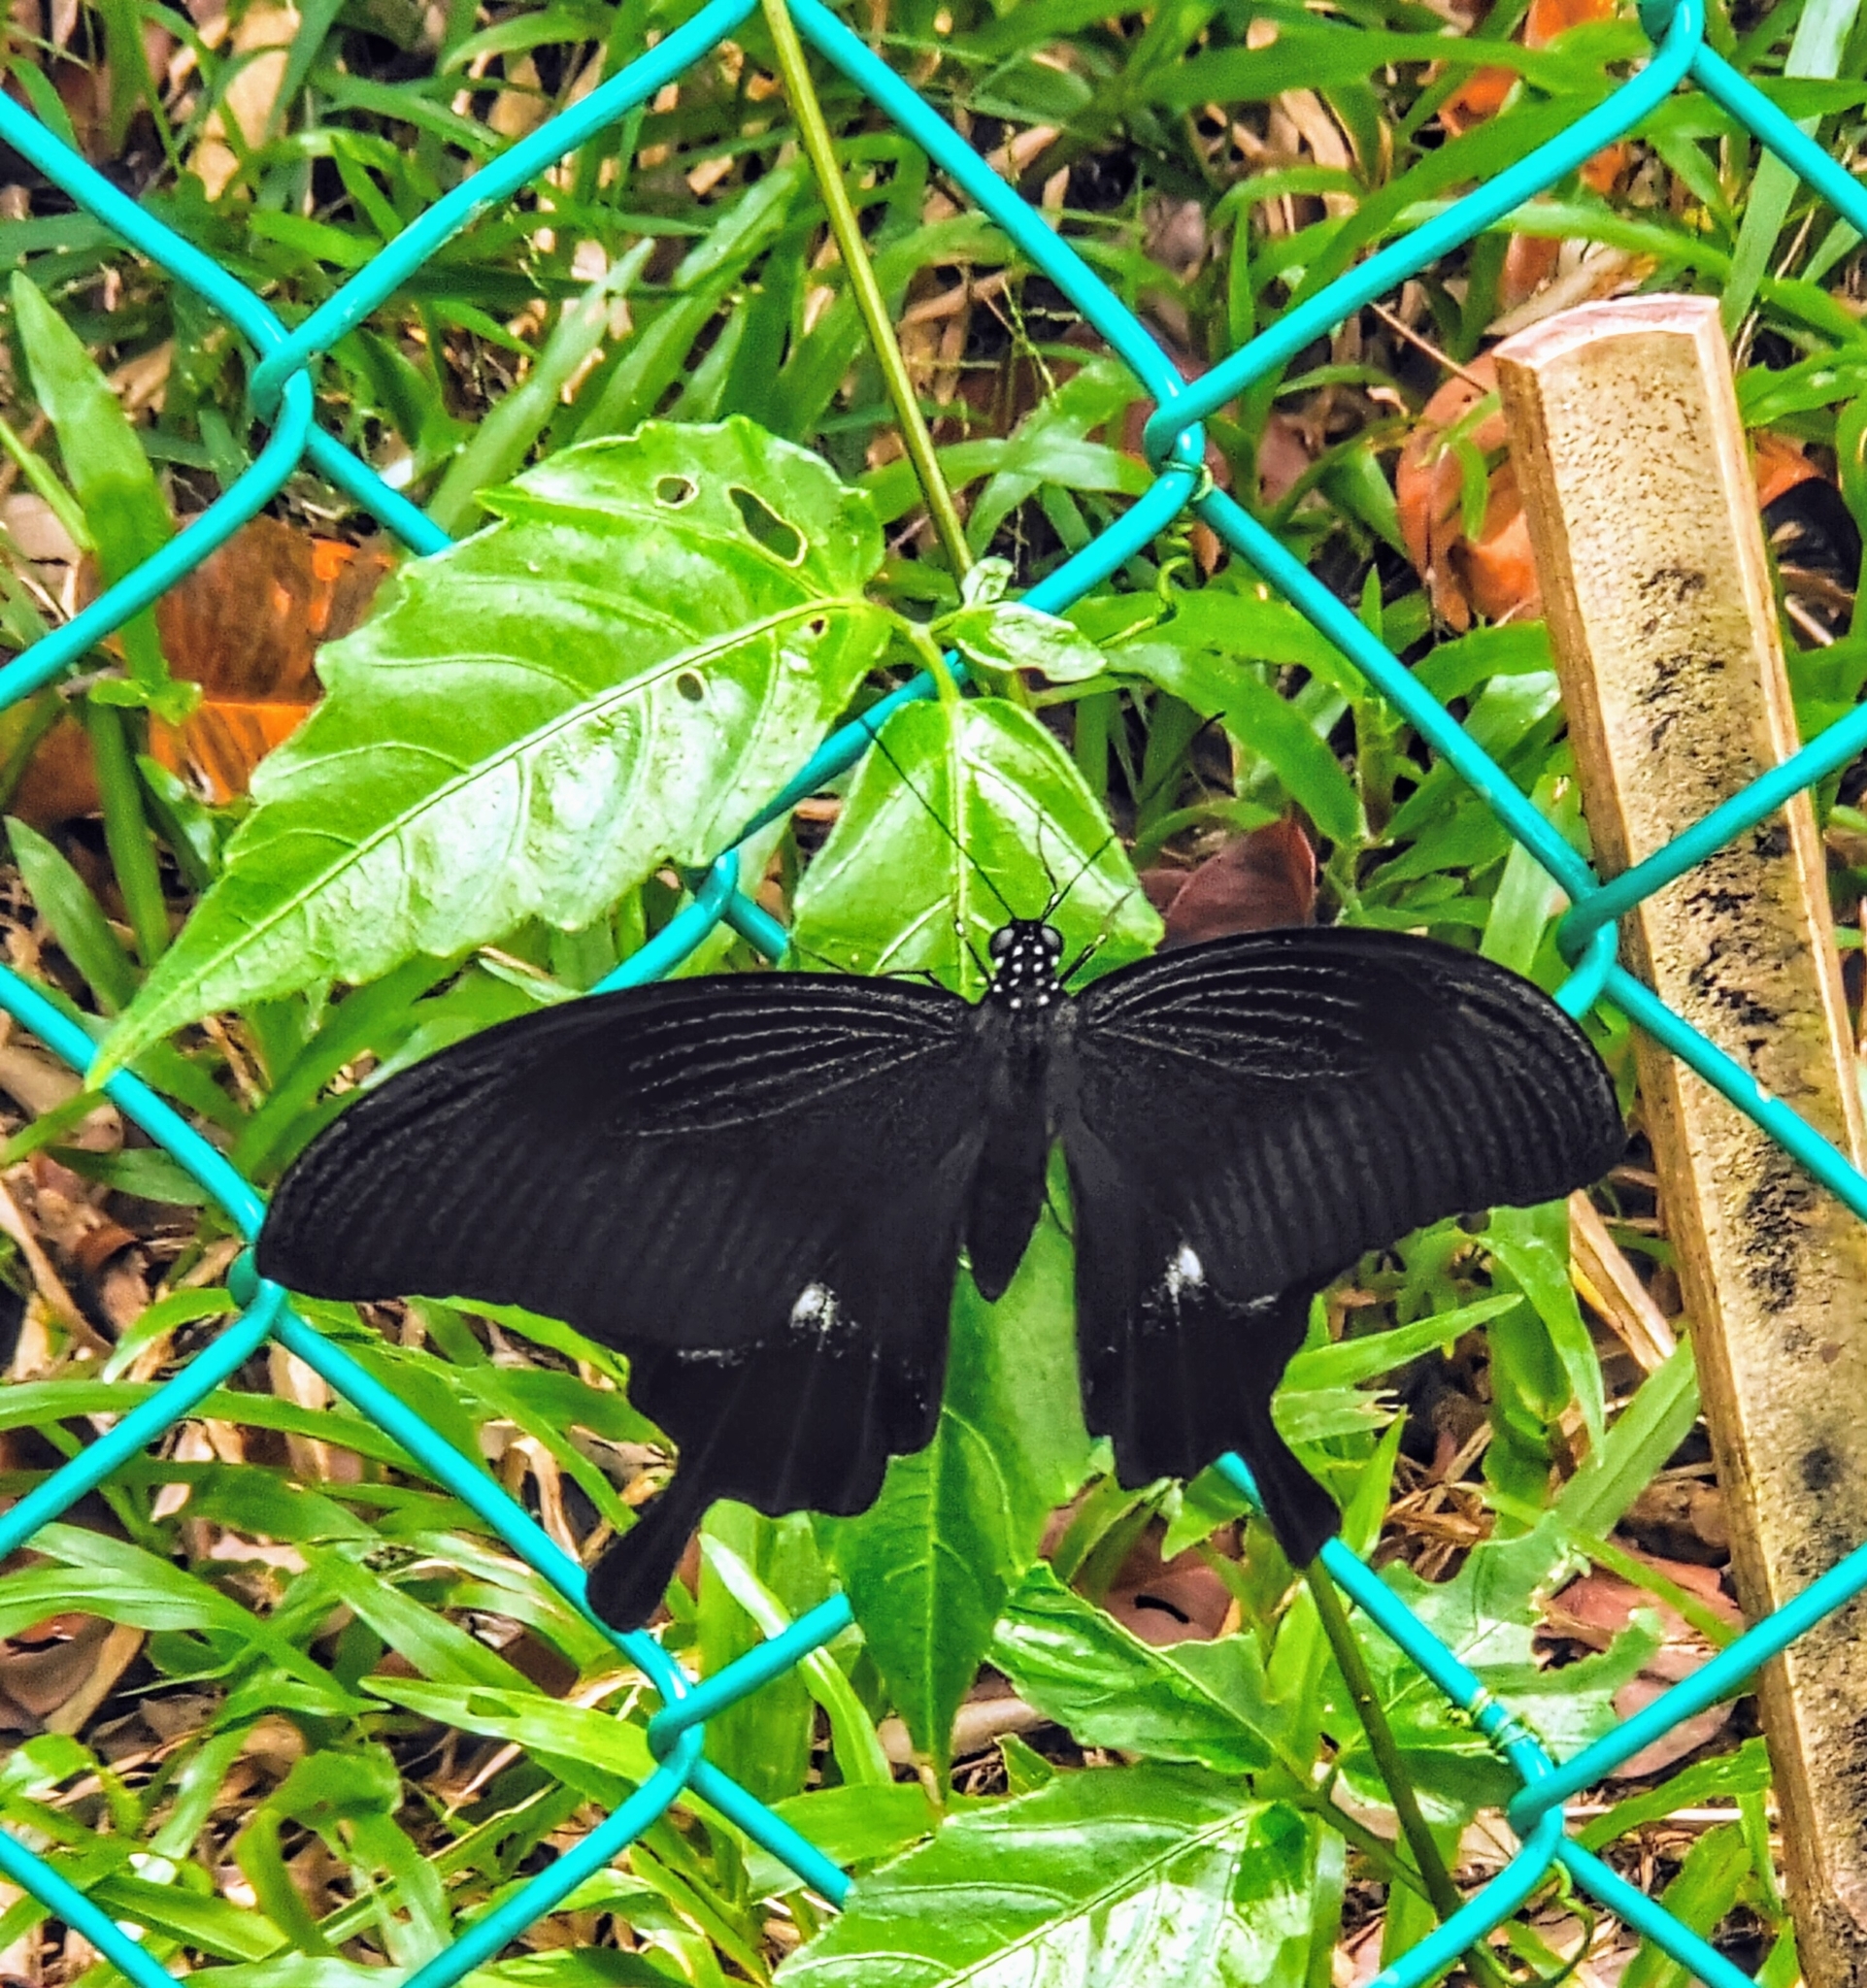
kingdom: Animalia
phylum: Arthropoda
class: Insecta
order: Lepidoptera
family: Papilionidae
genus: Papilio
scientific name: Papilio iswara
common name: Great helen swallowtail
